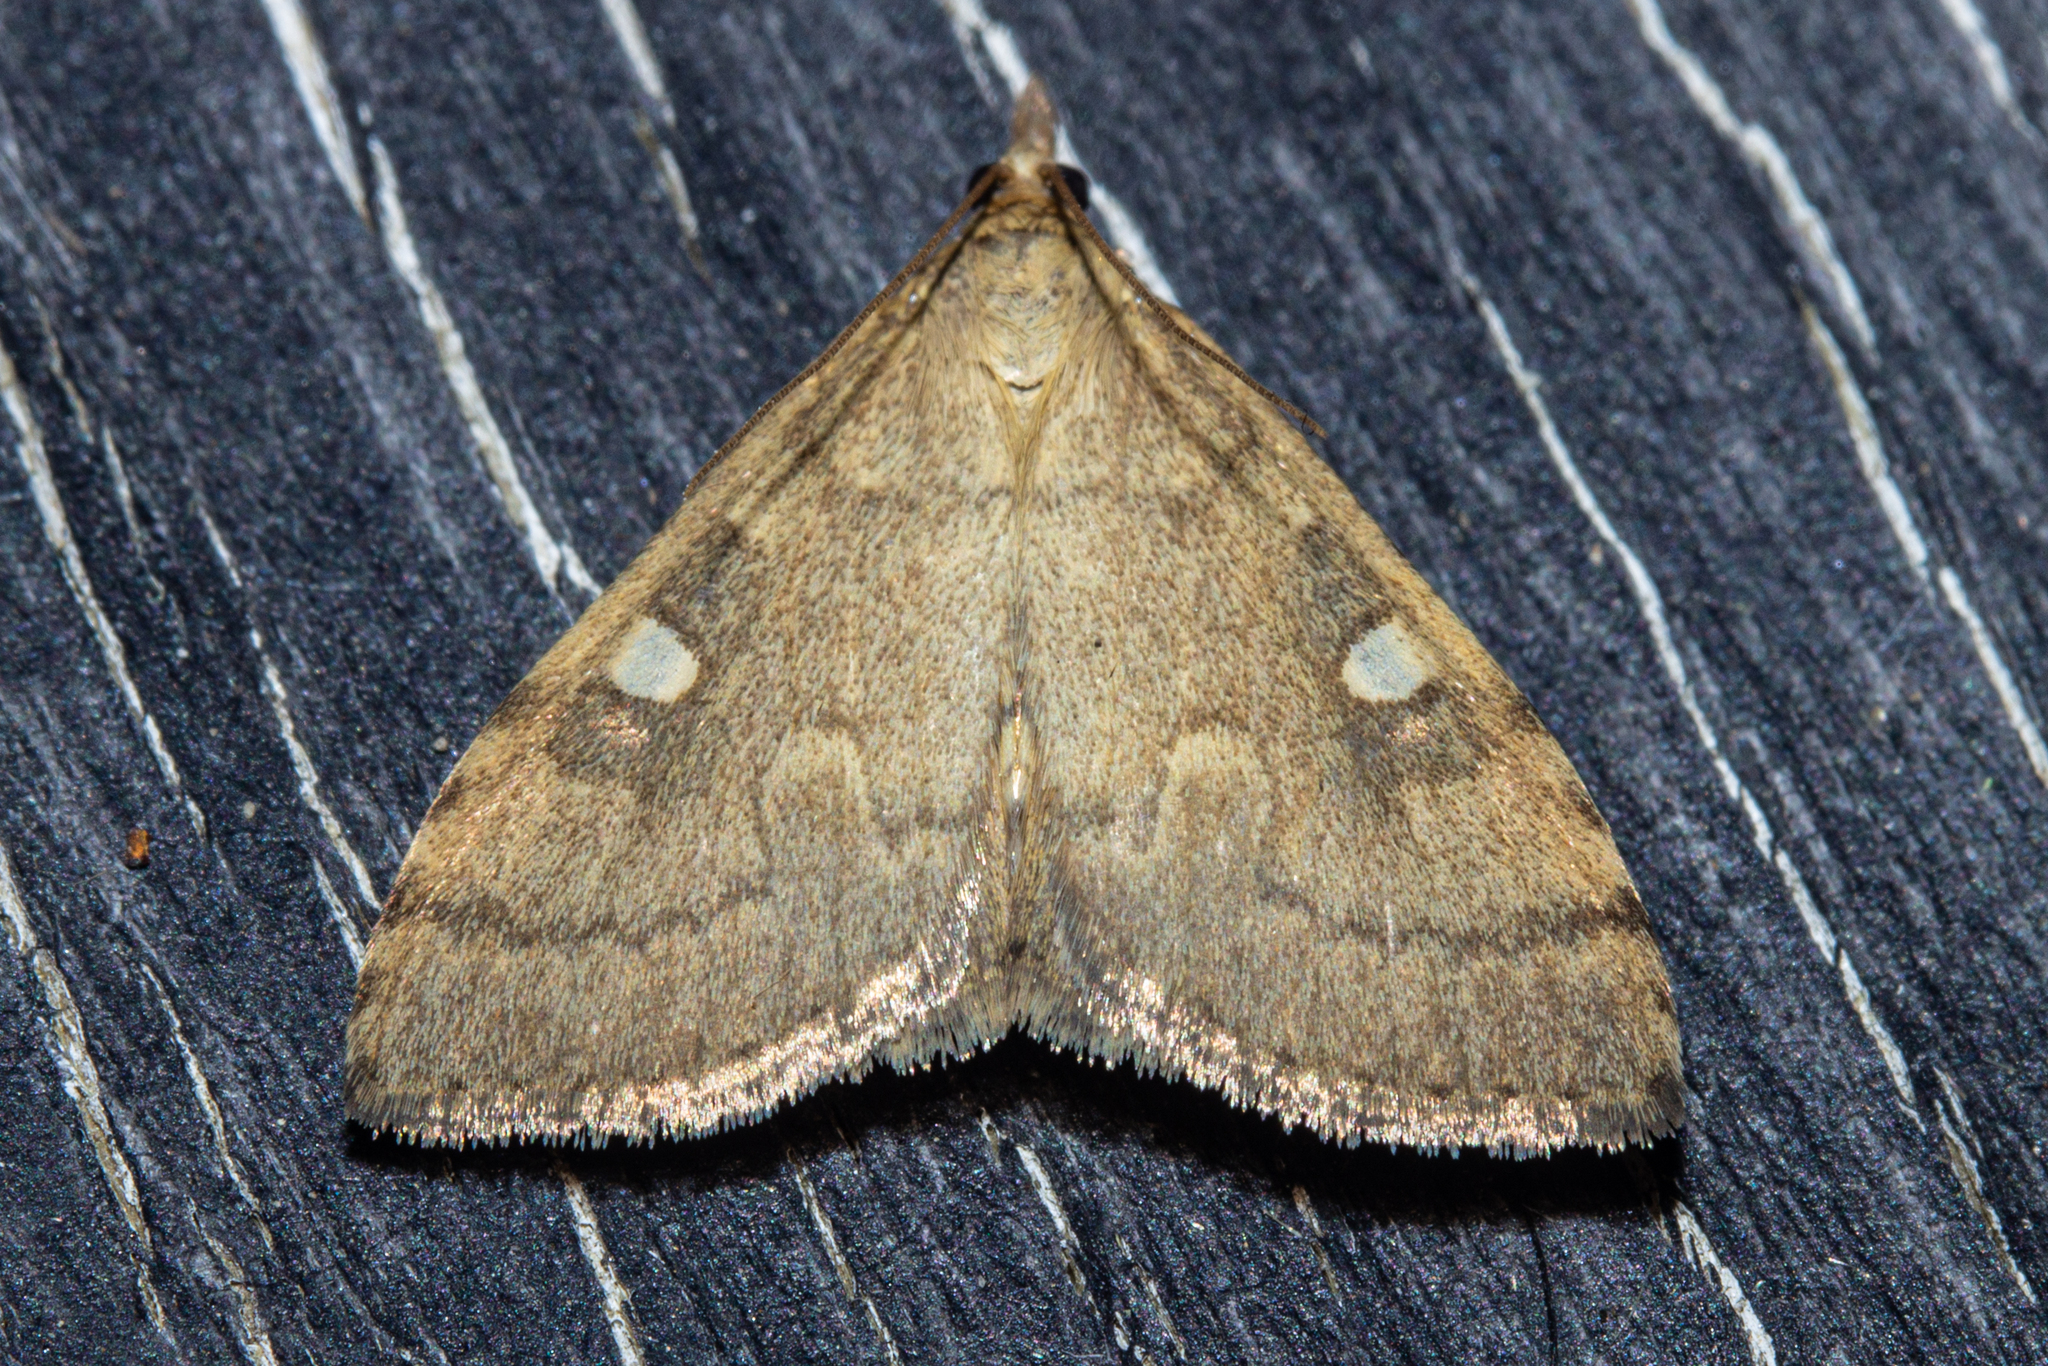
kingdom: Animalia
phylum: Arthropoda
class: Insecta
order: Lepidoptera
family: Crambidae
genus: Udea
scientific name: Udea Mnesictena marmarina
